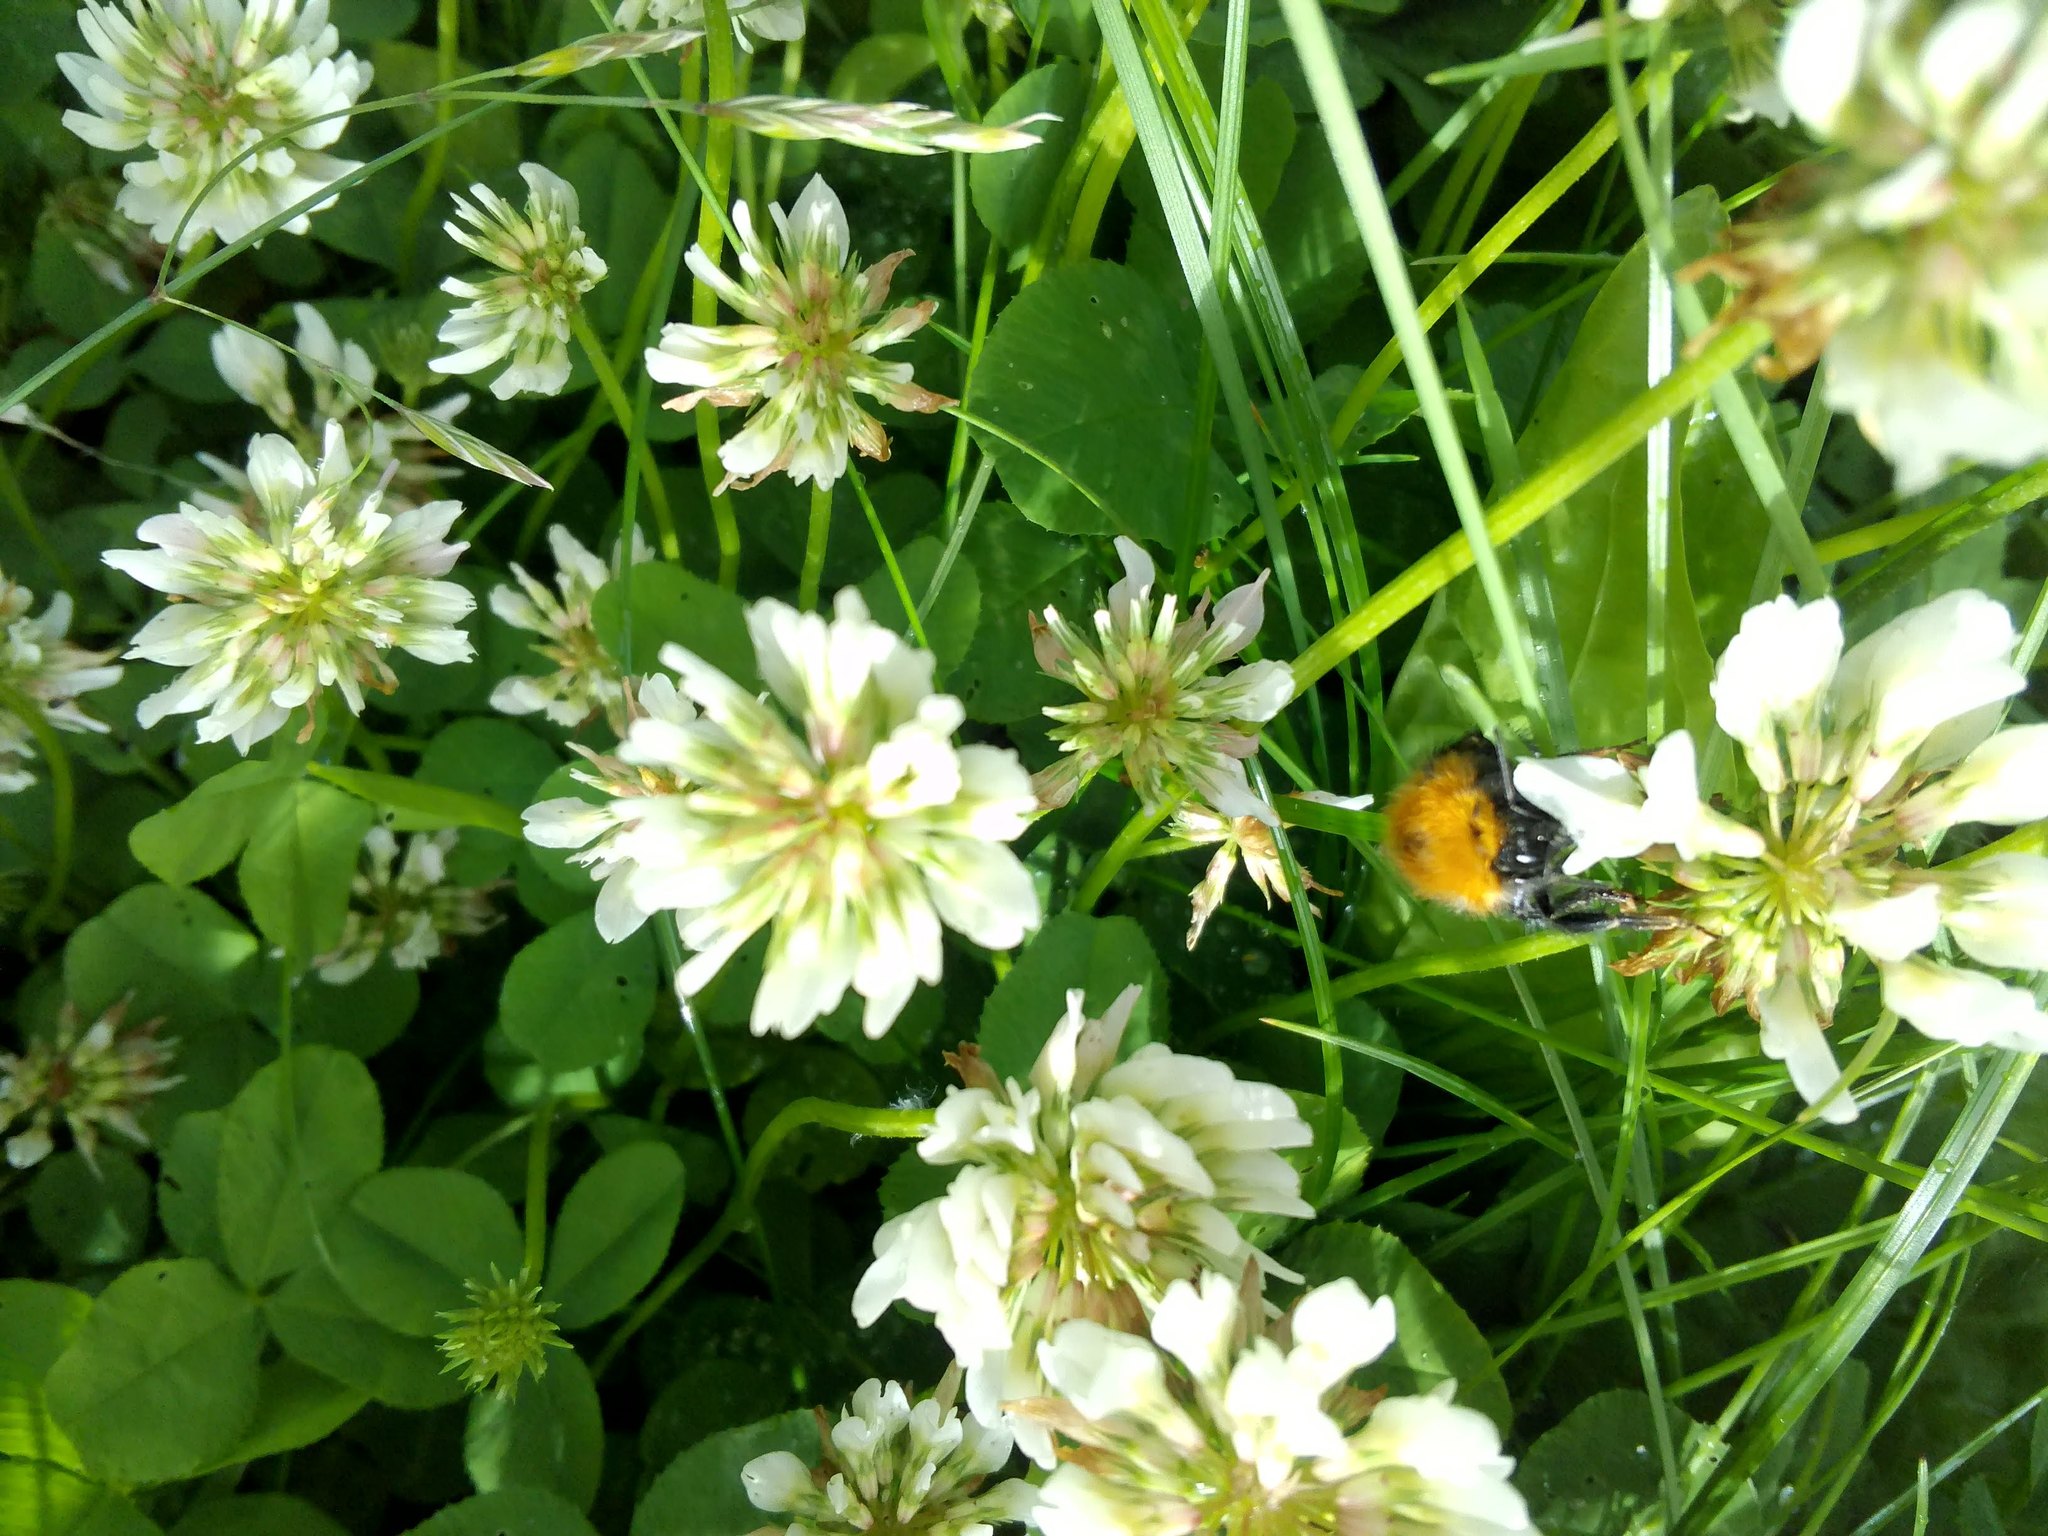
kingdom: Plantae
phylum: Tracheophyta
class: Magnoliopsida
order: Fabales
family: Fabaceae
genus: Trifolium
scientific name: Trifolium repens
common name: White clover
